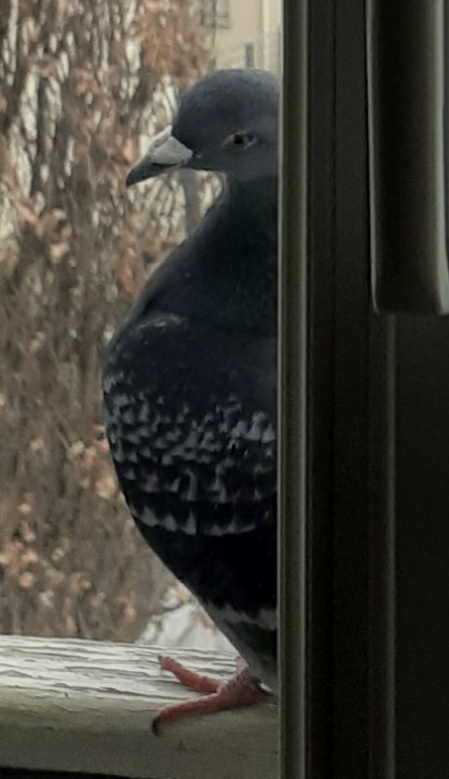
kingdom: Animalia
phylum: Chordata
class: Aves
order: Columbiformes
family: Columbidae
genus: Columba
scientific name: Columba livia
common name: Rock pigeon
